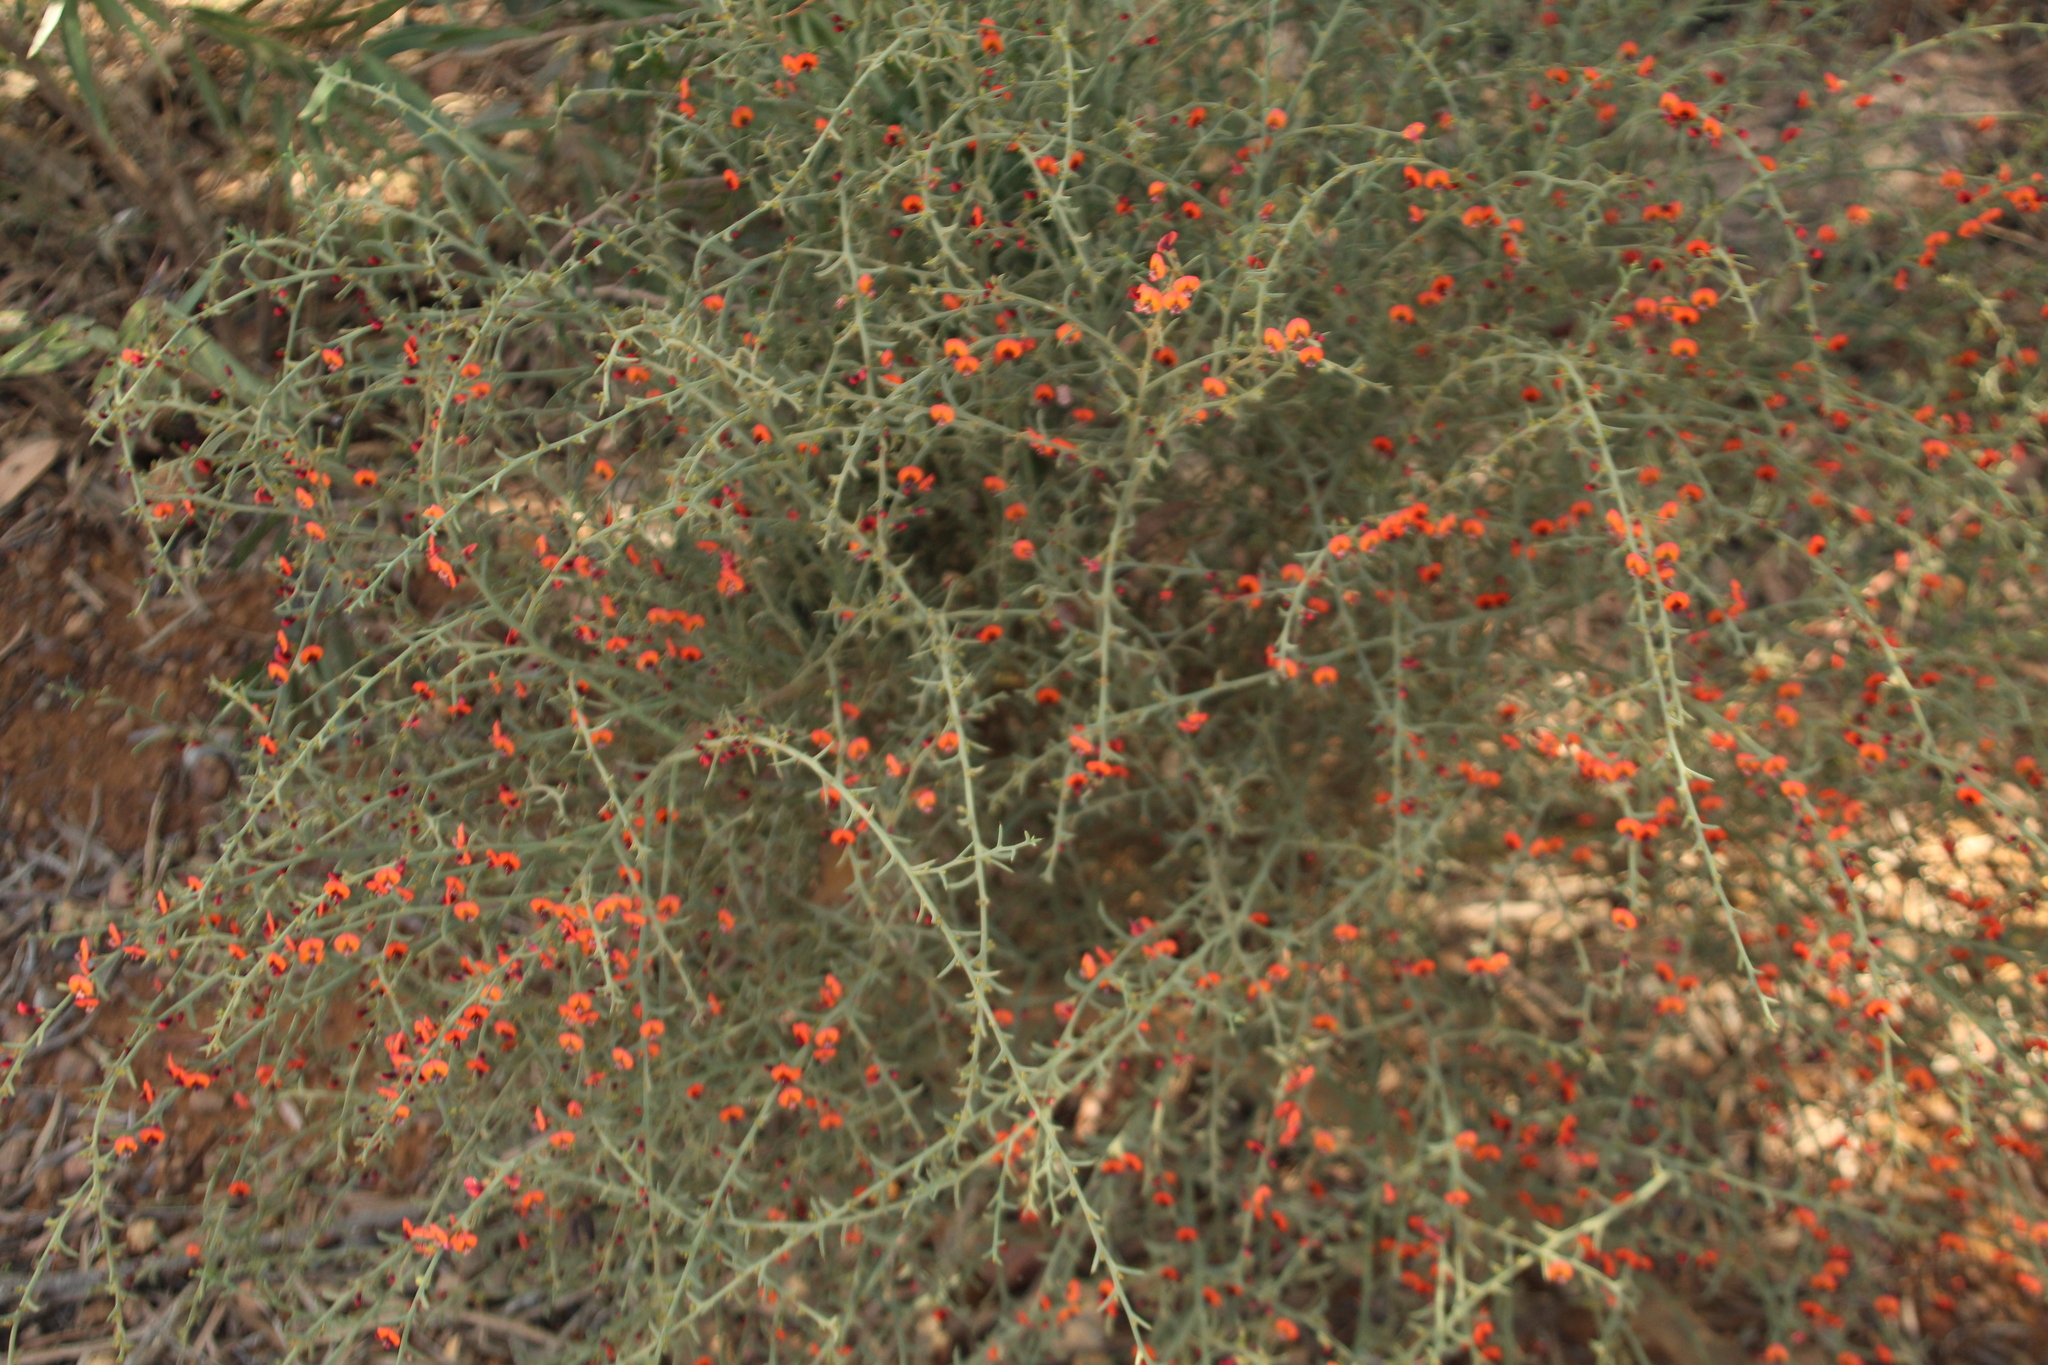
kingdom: Plantae
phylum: Tracheophyta
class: Magnoliopsida
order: Fabales
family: Fabaceae
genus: Daviesia
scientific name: Daviesia incrassata
